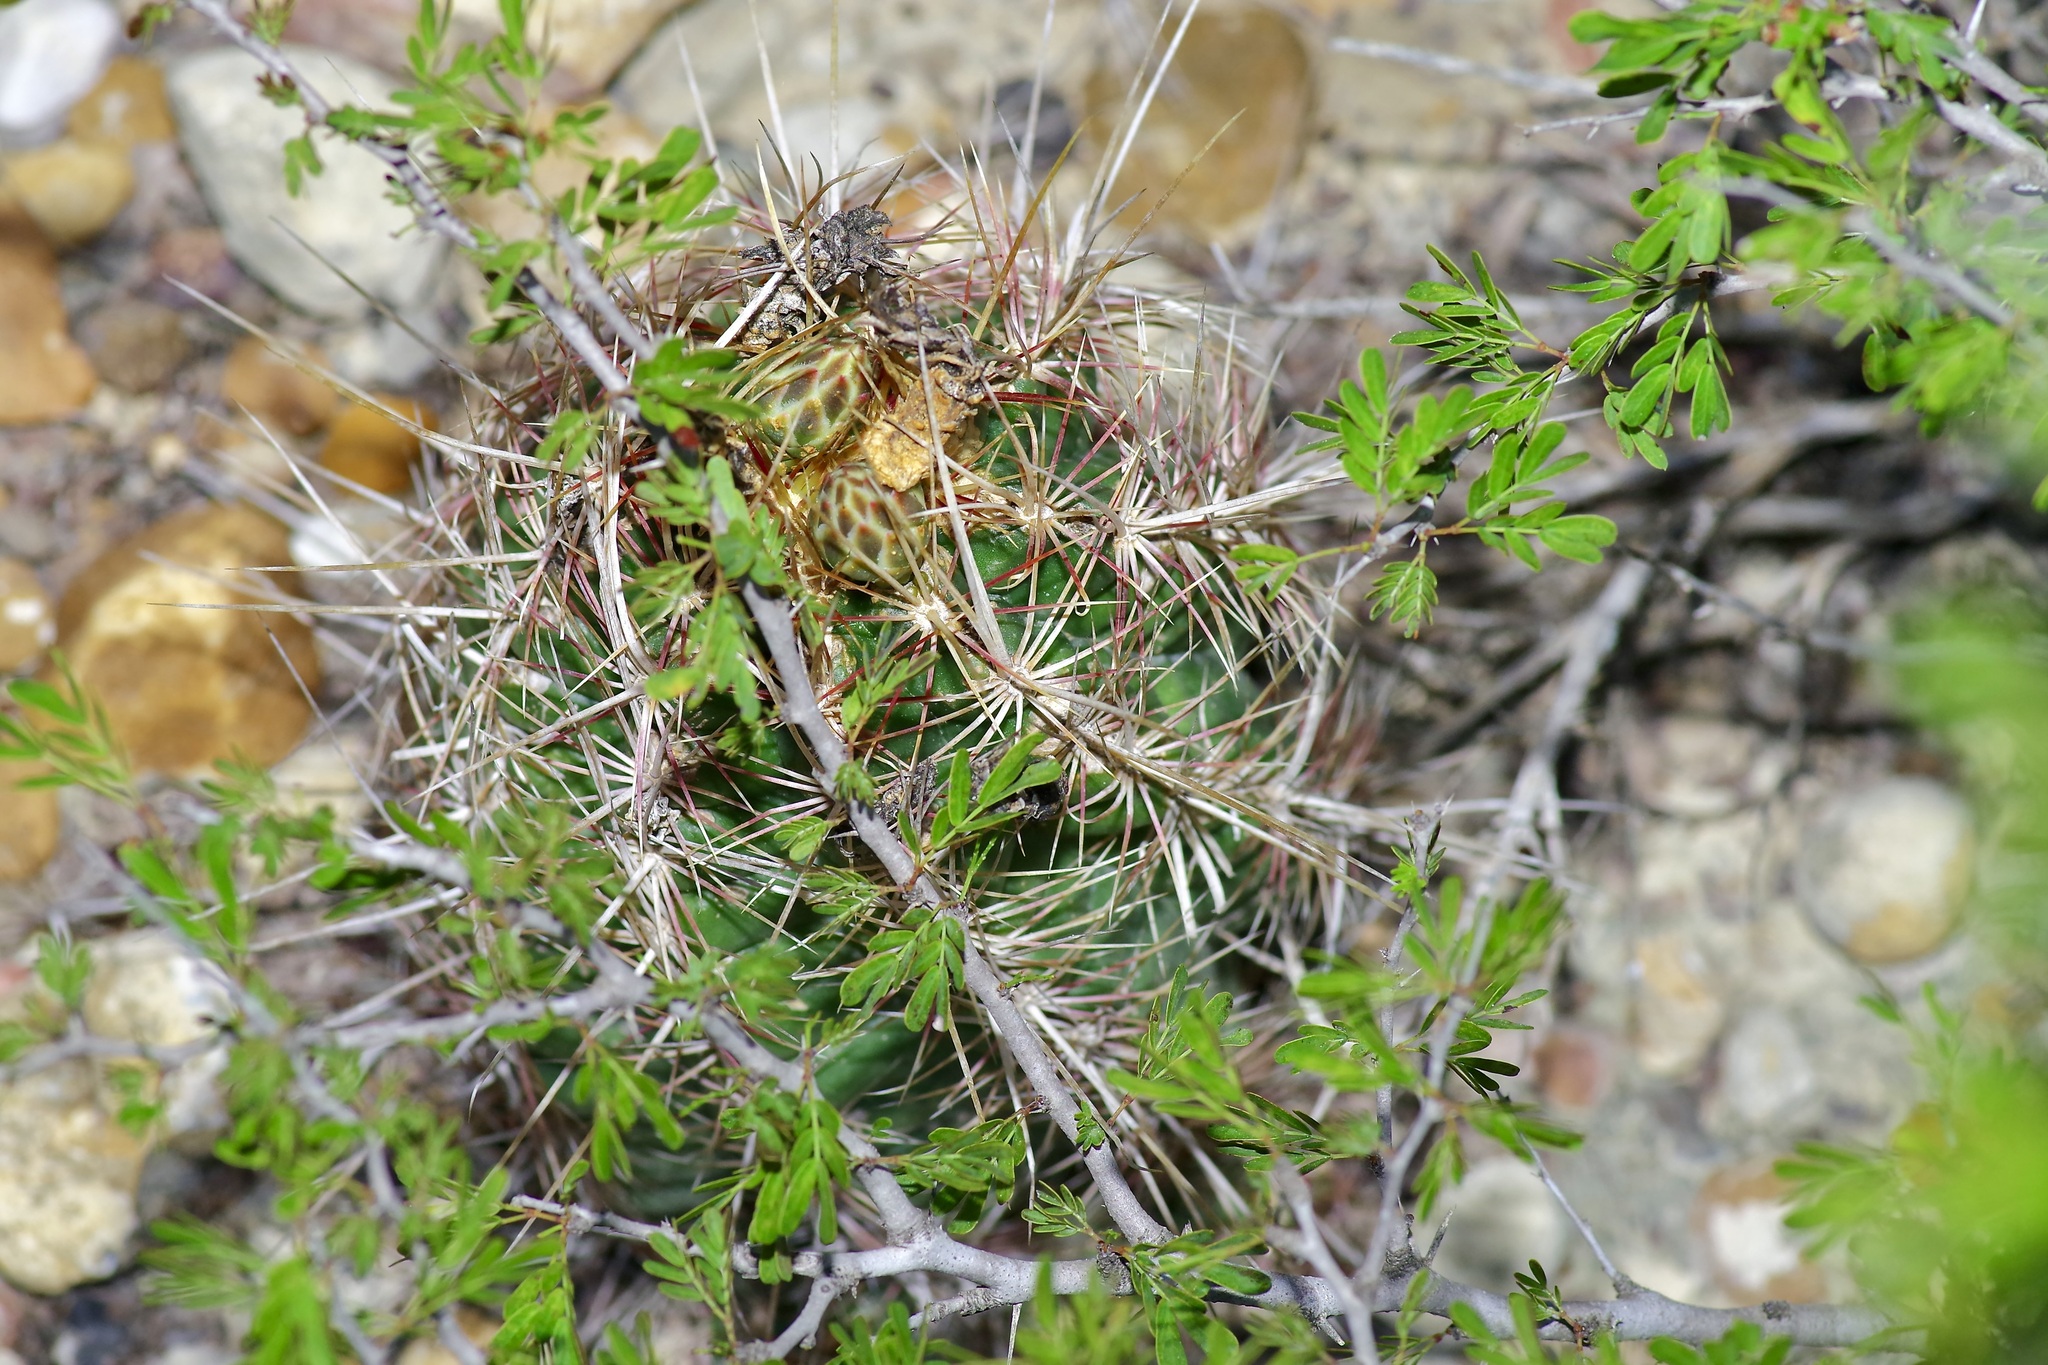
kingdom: Plantae
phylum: Tracheophyta
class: Magnoliopsida
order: Caryophyllales
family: Cactaceae
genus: Thelocactus
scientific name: Thelocactus bicolor
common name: Glory of texas
